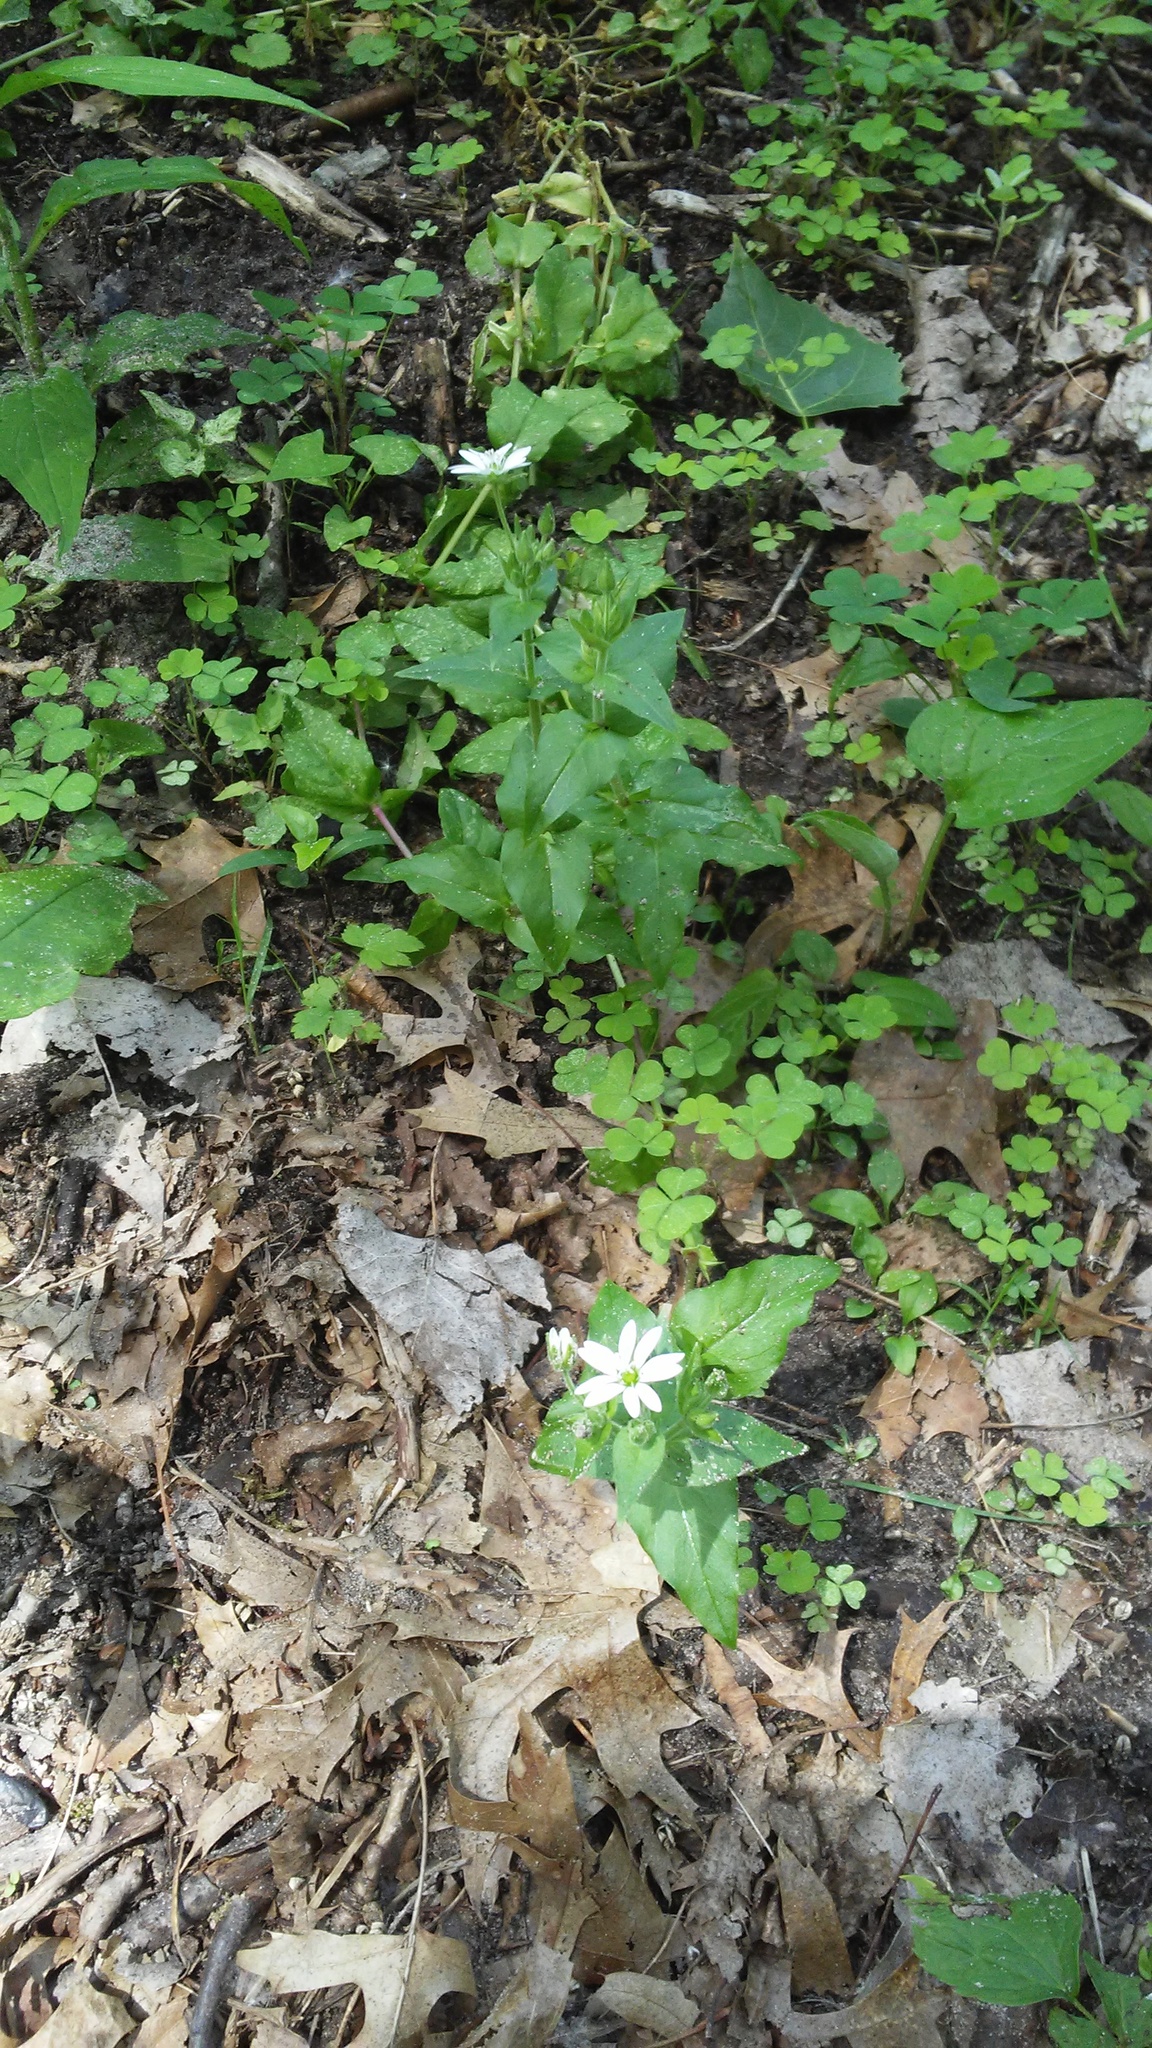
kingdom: Plantae
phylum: Tracheophyta
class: Magnoliopsida
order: Brassicales
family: Brassicaceae
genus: Berteroa
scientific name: Berteroa incana
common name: Hoary alison
